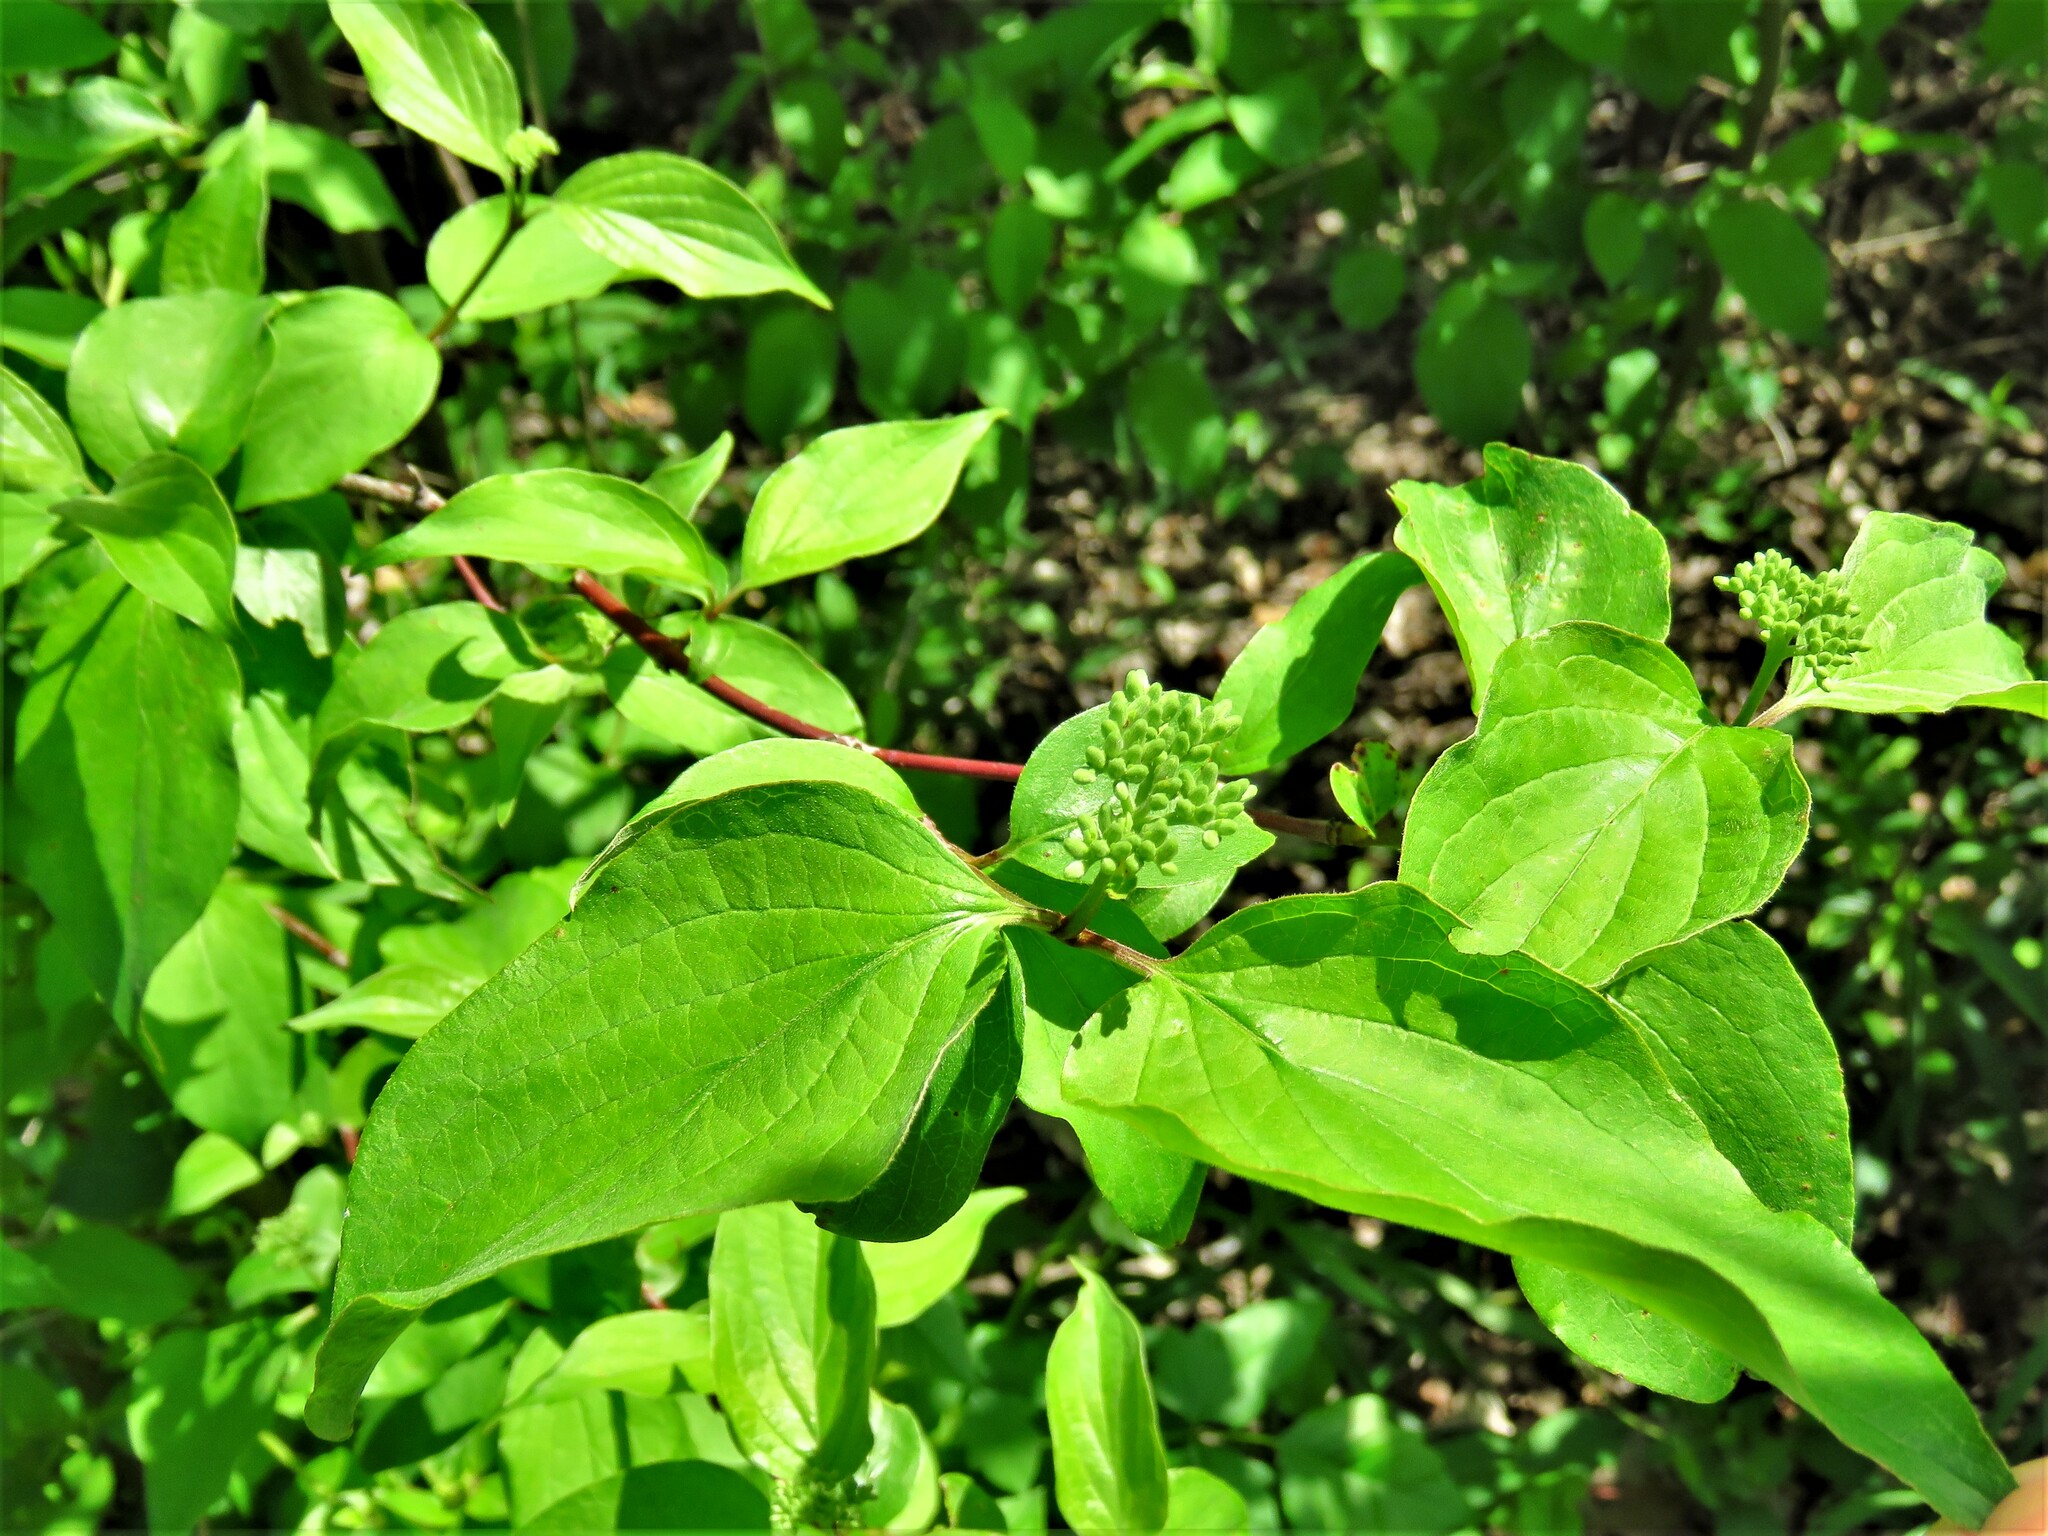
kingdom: Plantae
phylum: Tracheophyta
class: Magnoliopsida
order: Cornales
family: Cornaceae
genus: Cornus
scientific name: Cornus drummondii
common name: Rough-leaf dogwood
